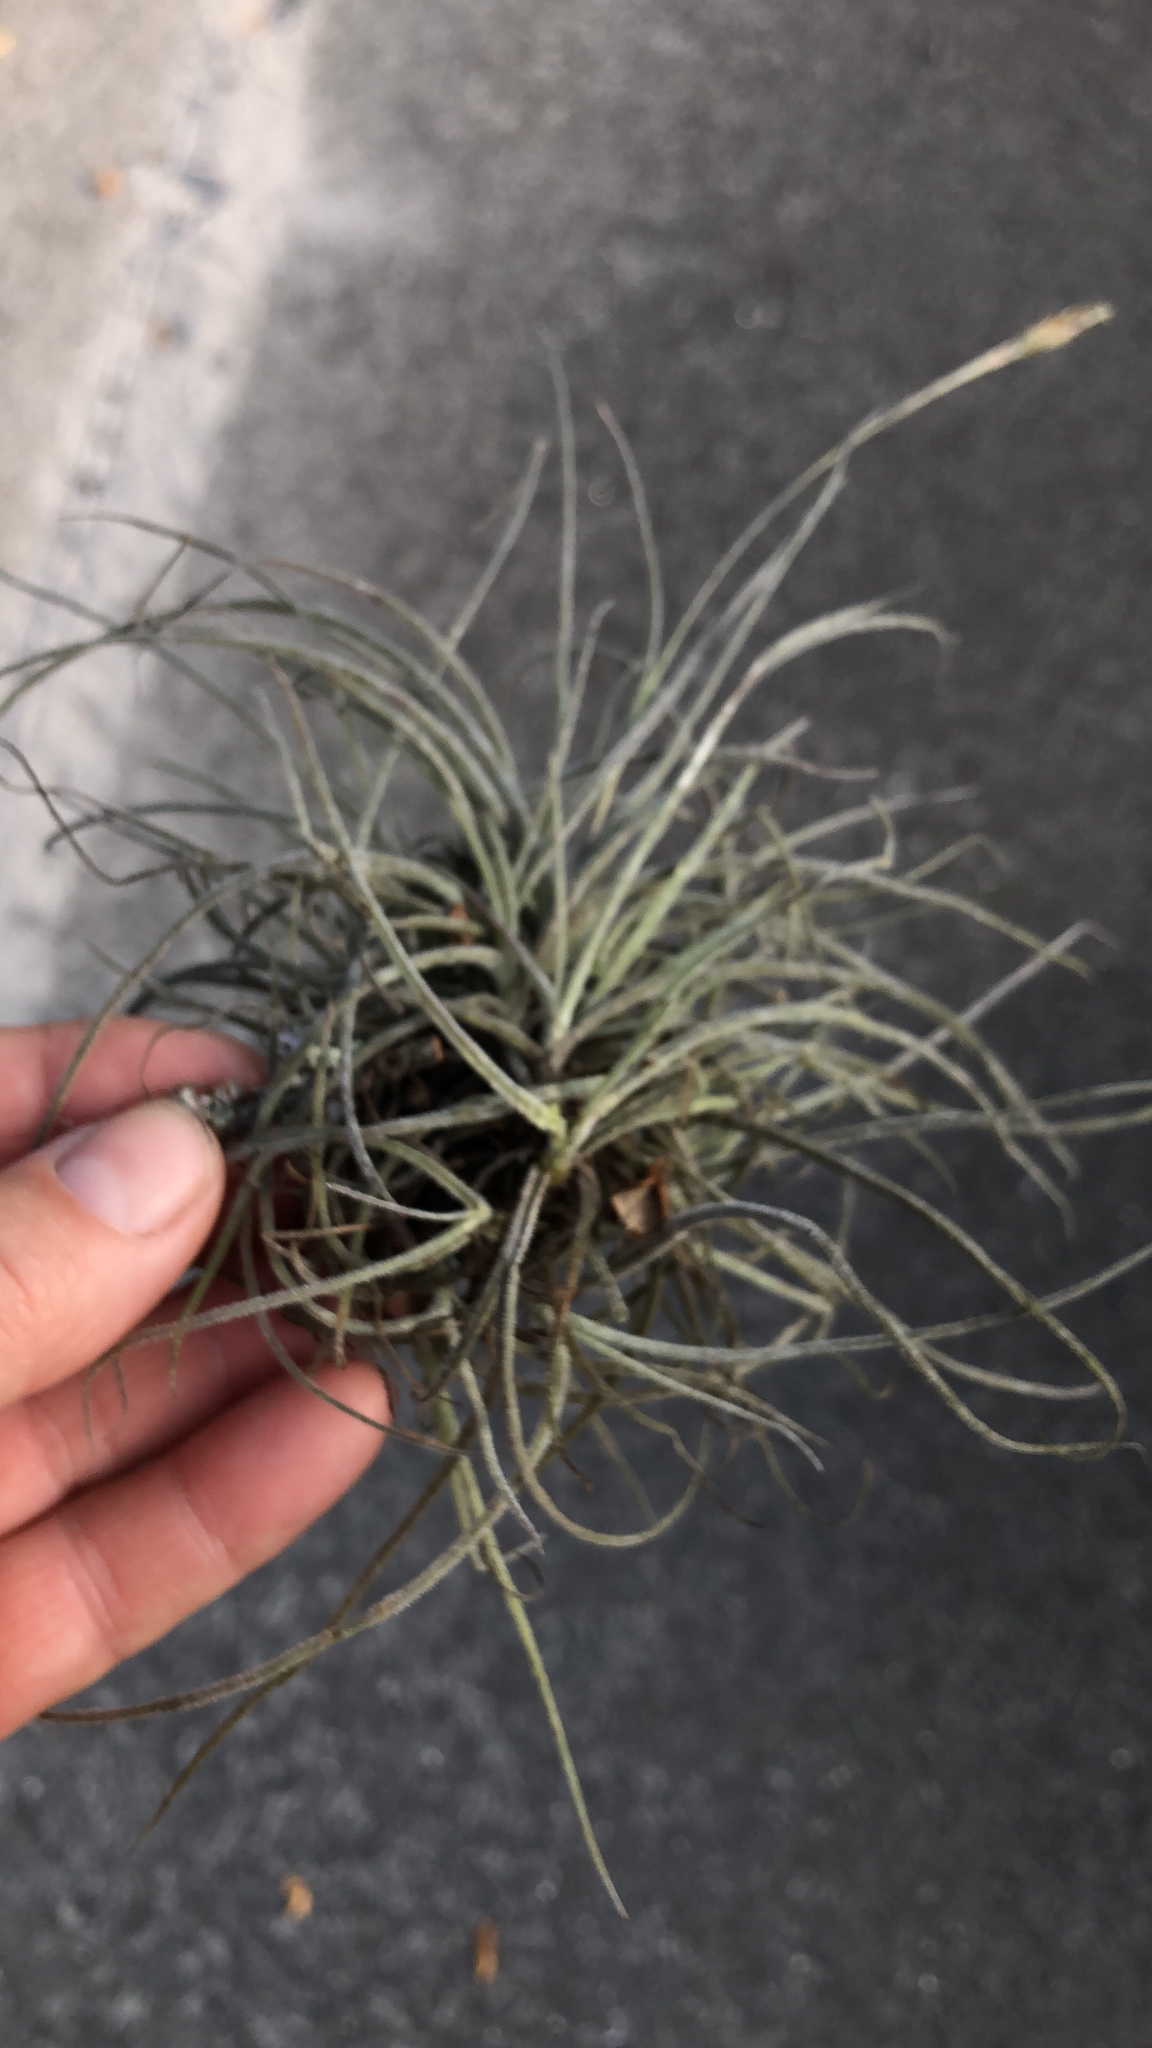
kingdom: Plantae
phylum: Tracheophyta
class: Liliopsida
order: Poales
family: Bromeliaceae
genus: Tillandsia
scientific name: Tillandsia recurvata
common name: Small ballmoss
